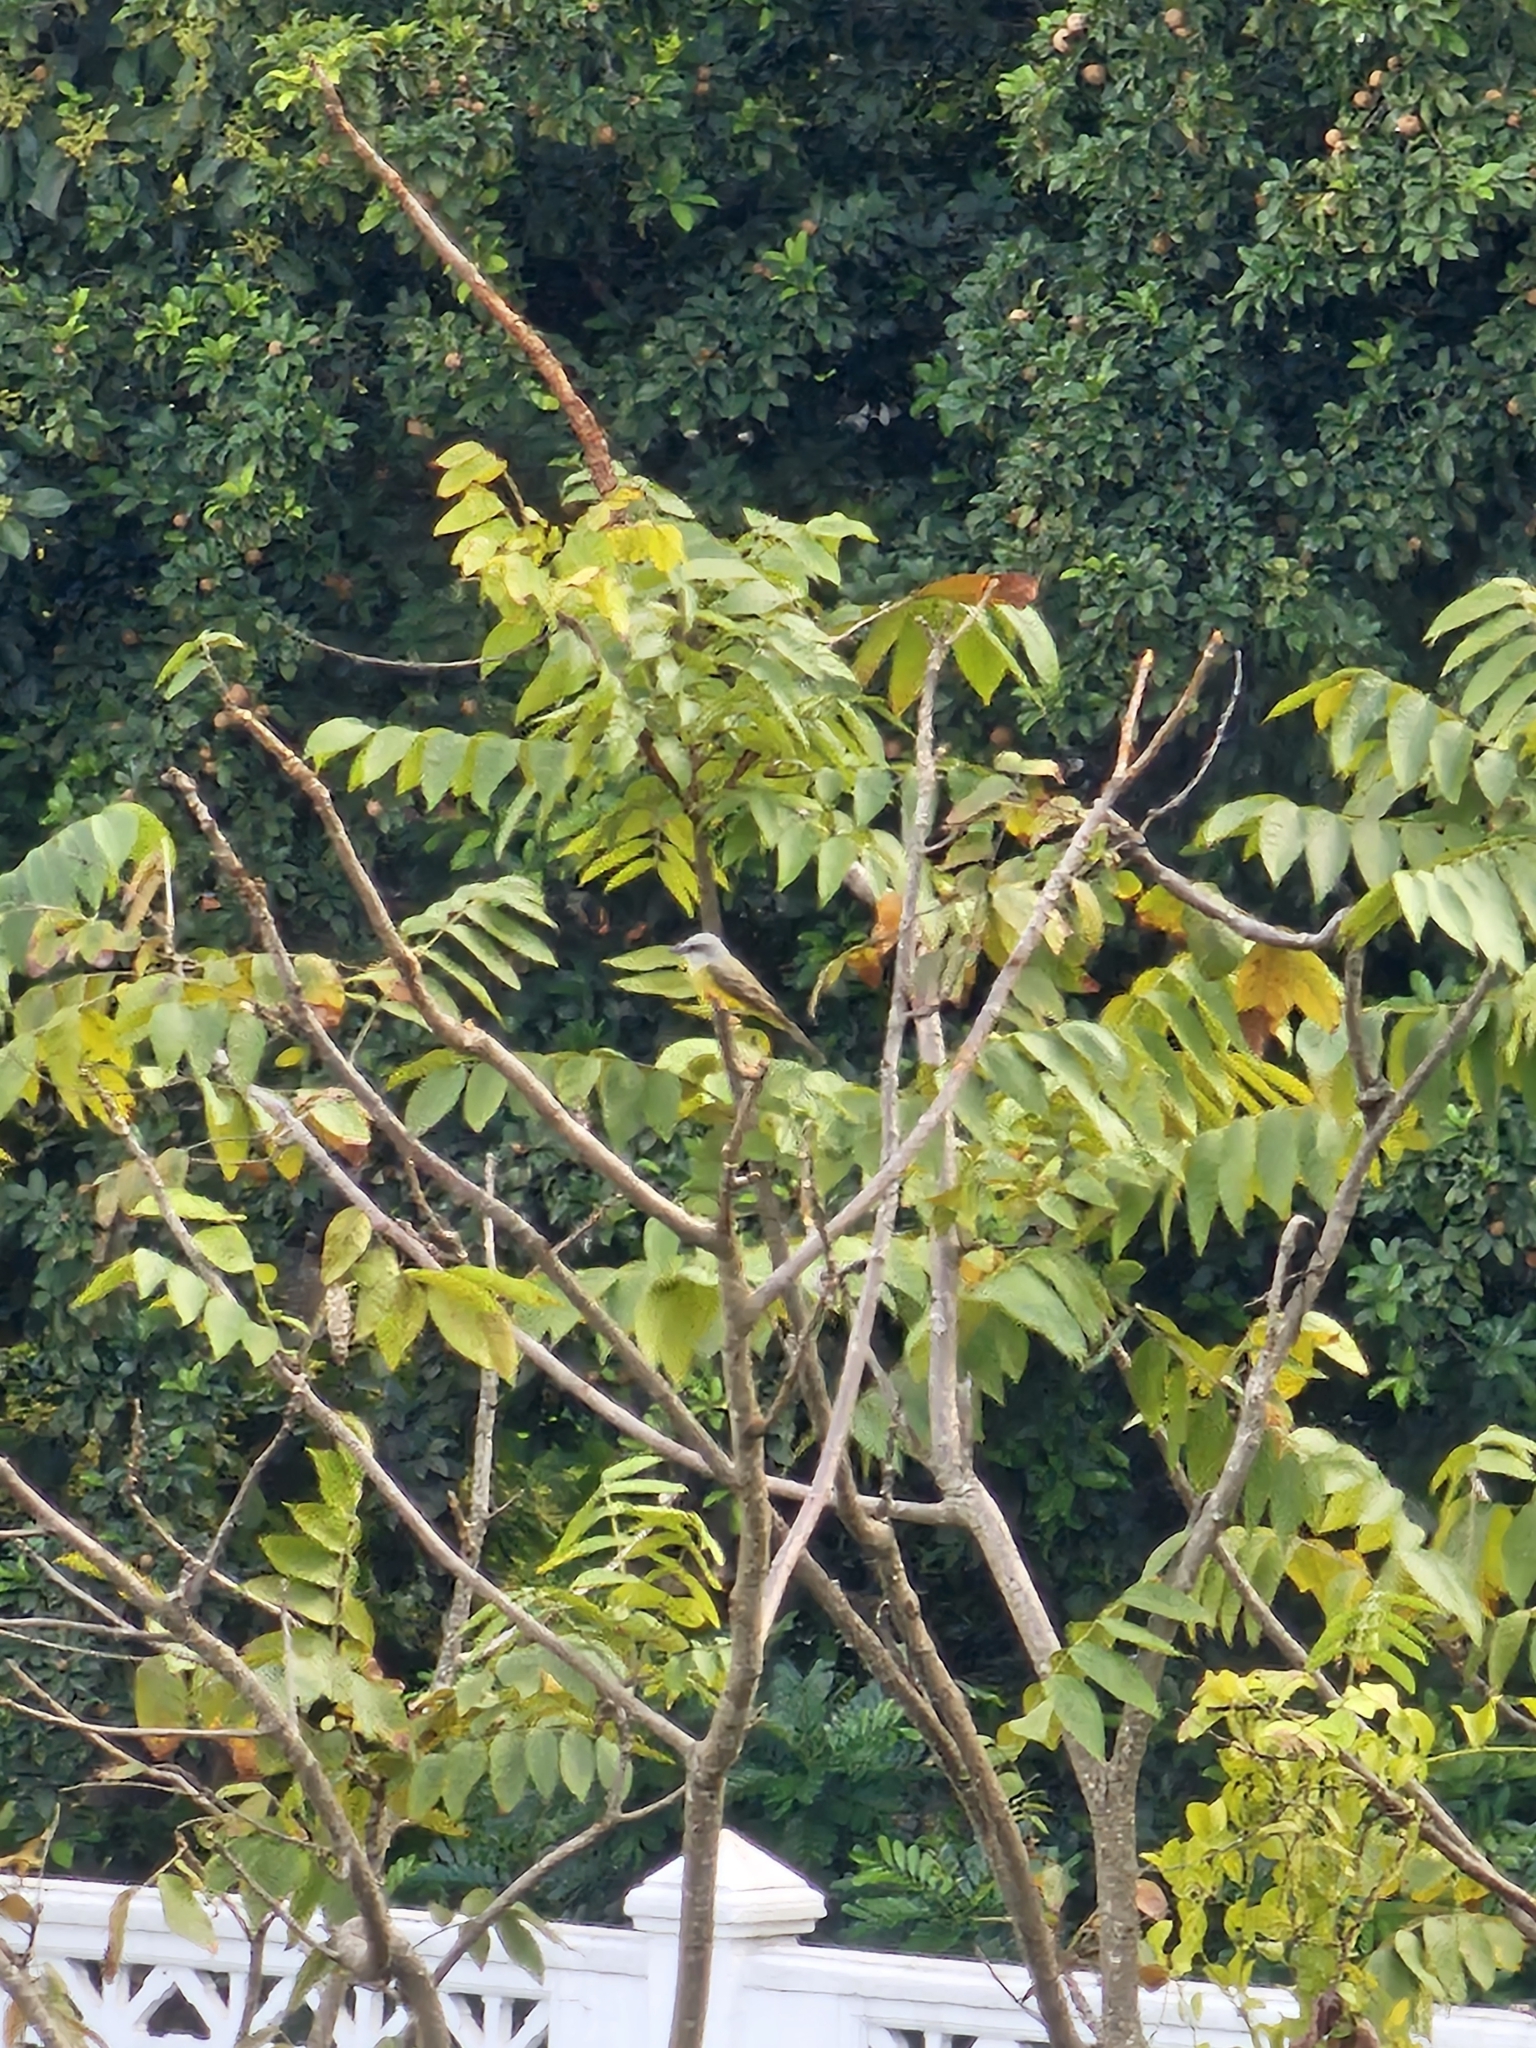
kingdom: Animalia
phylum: Chordata
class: Aves
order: Passeriformes
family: Tyrannidae
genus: Tyrannus
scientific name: Tyrannus melancholicus
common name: Tropical kingbird
